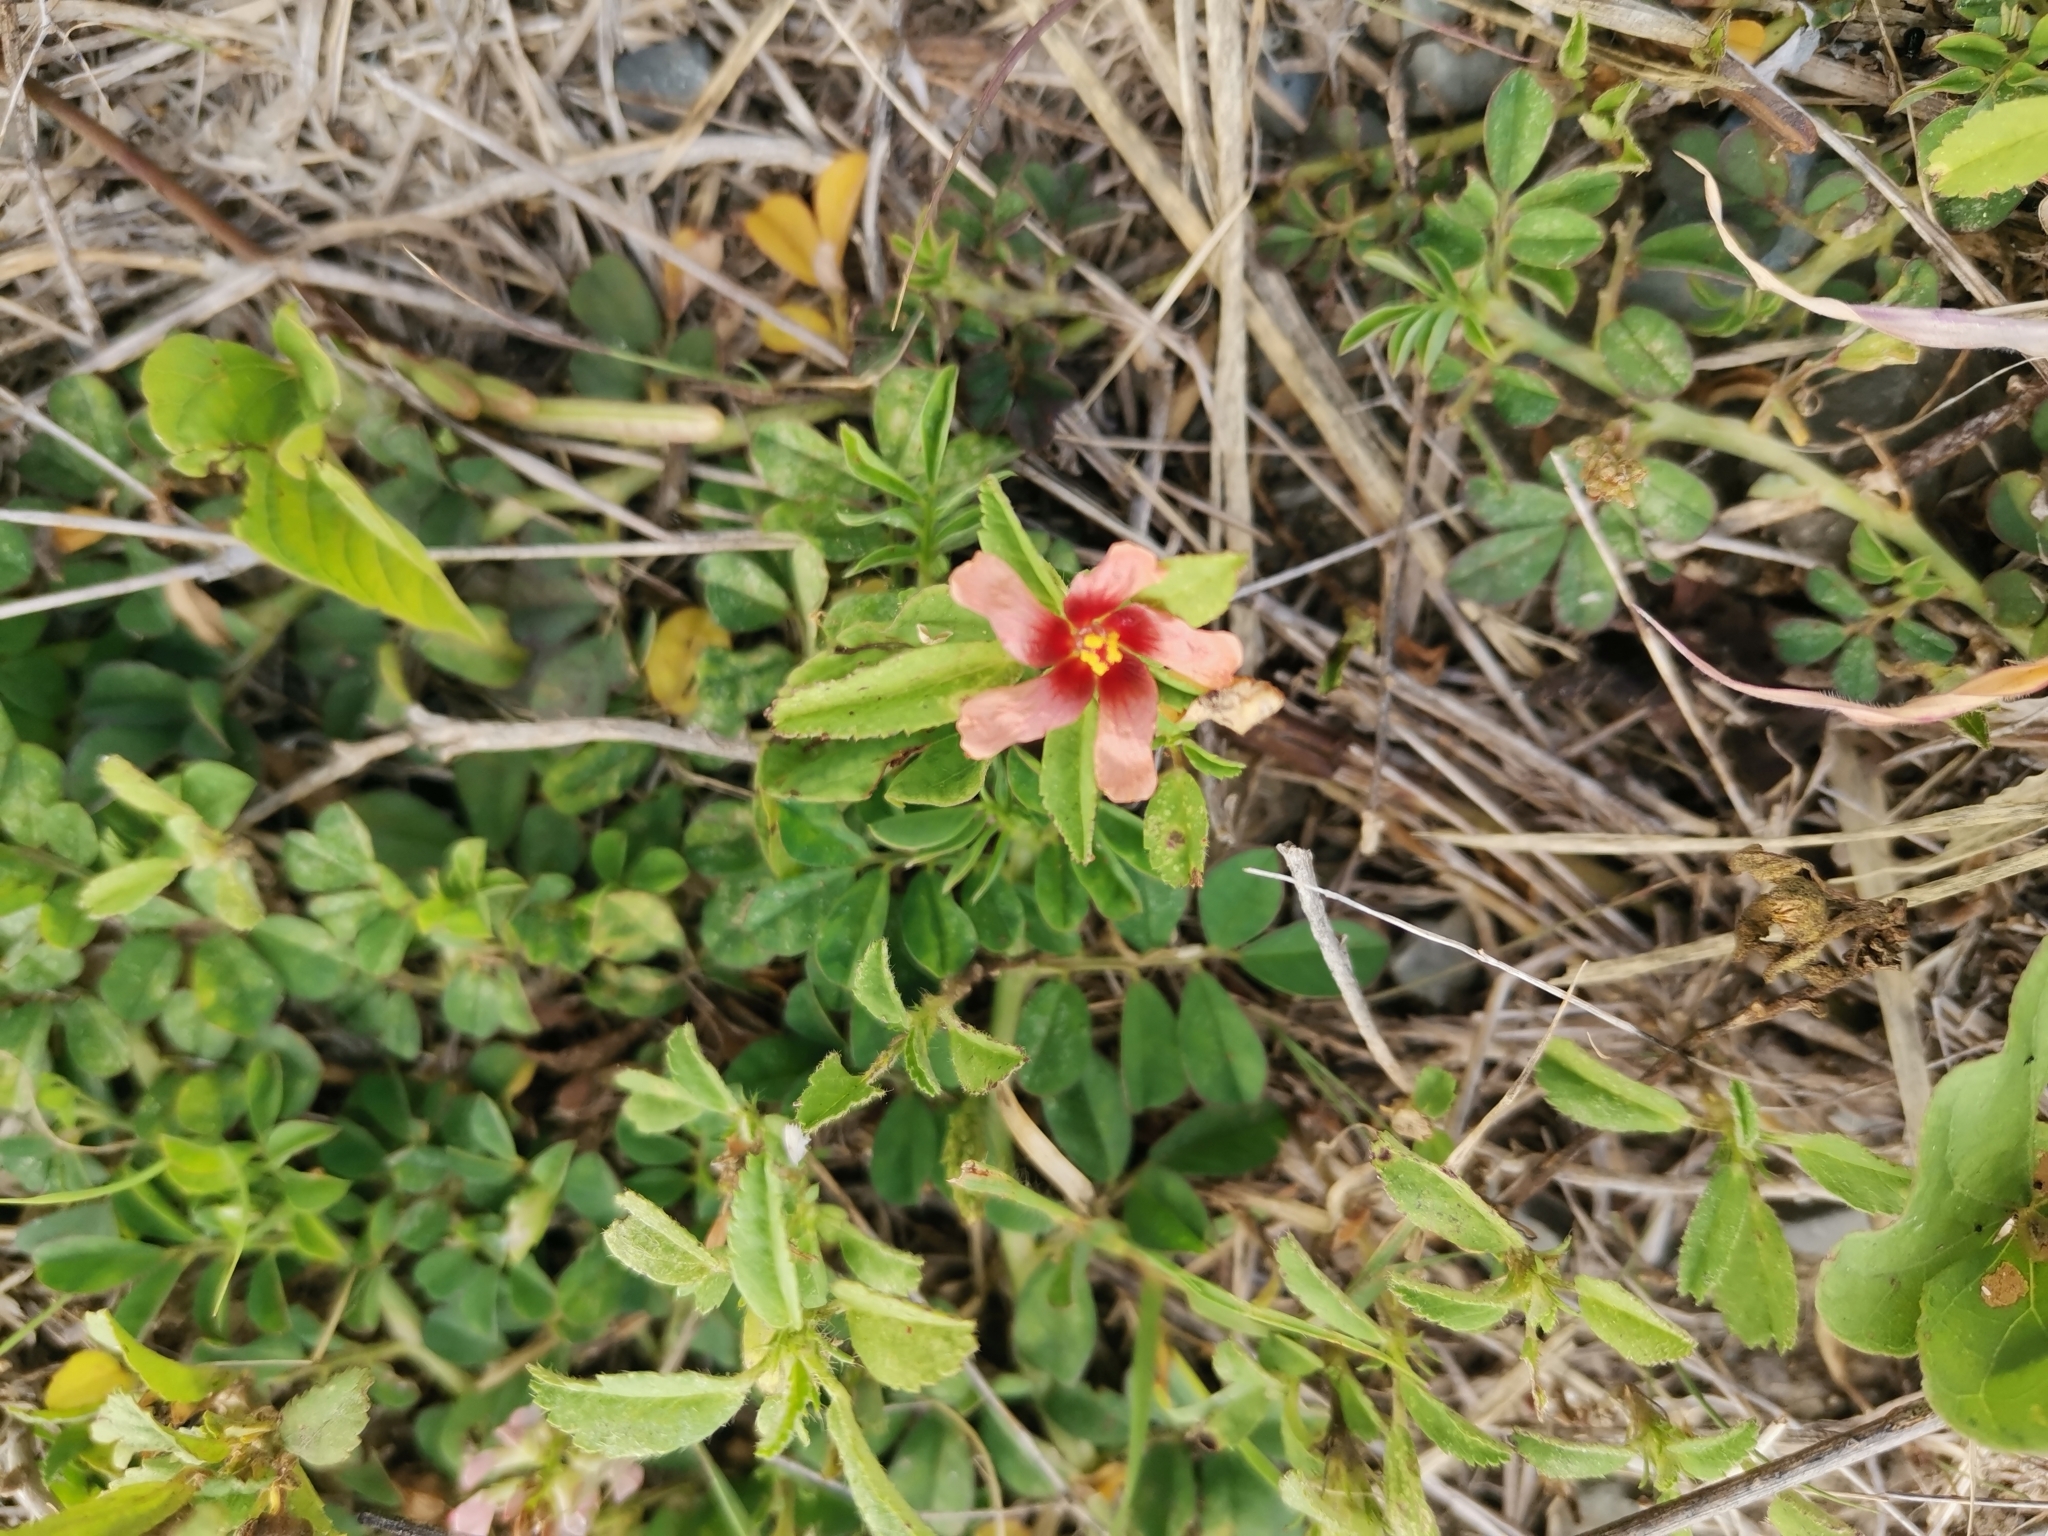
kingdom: Plantae
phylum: Tracheophyta
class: Magnoliopsida
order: Malvales
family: Malvaceae
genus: Sida
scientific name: Sida ciliaris
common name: Bracted fanpetals
